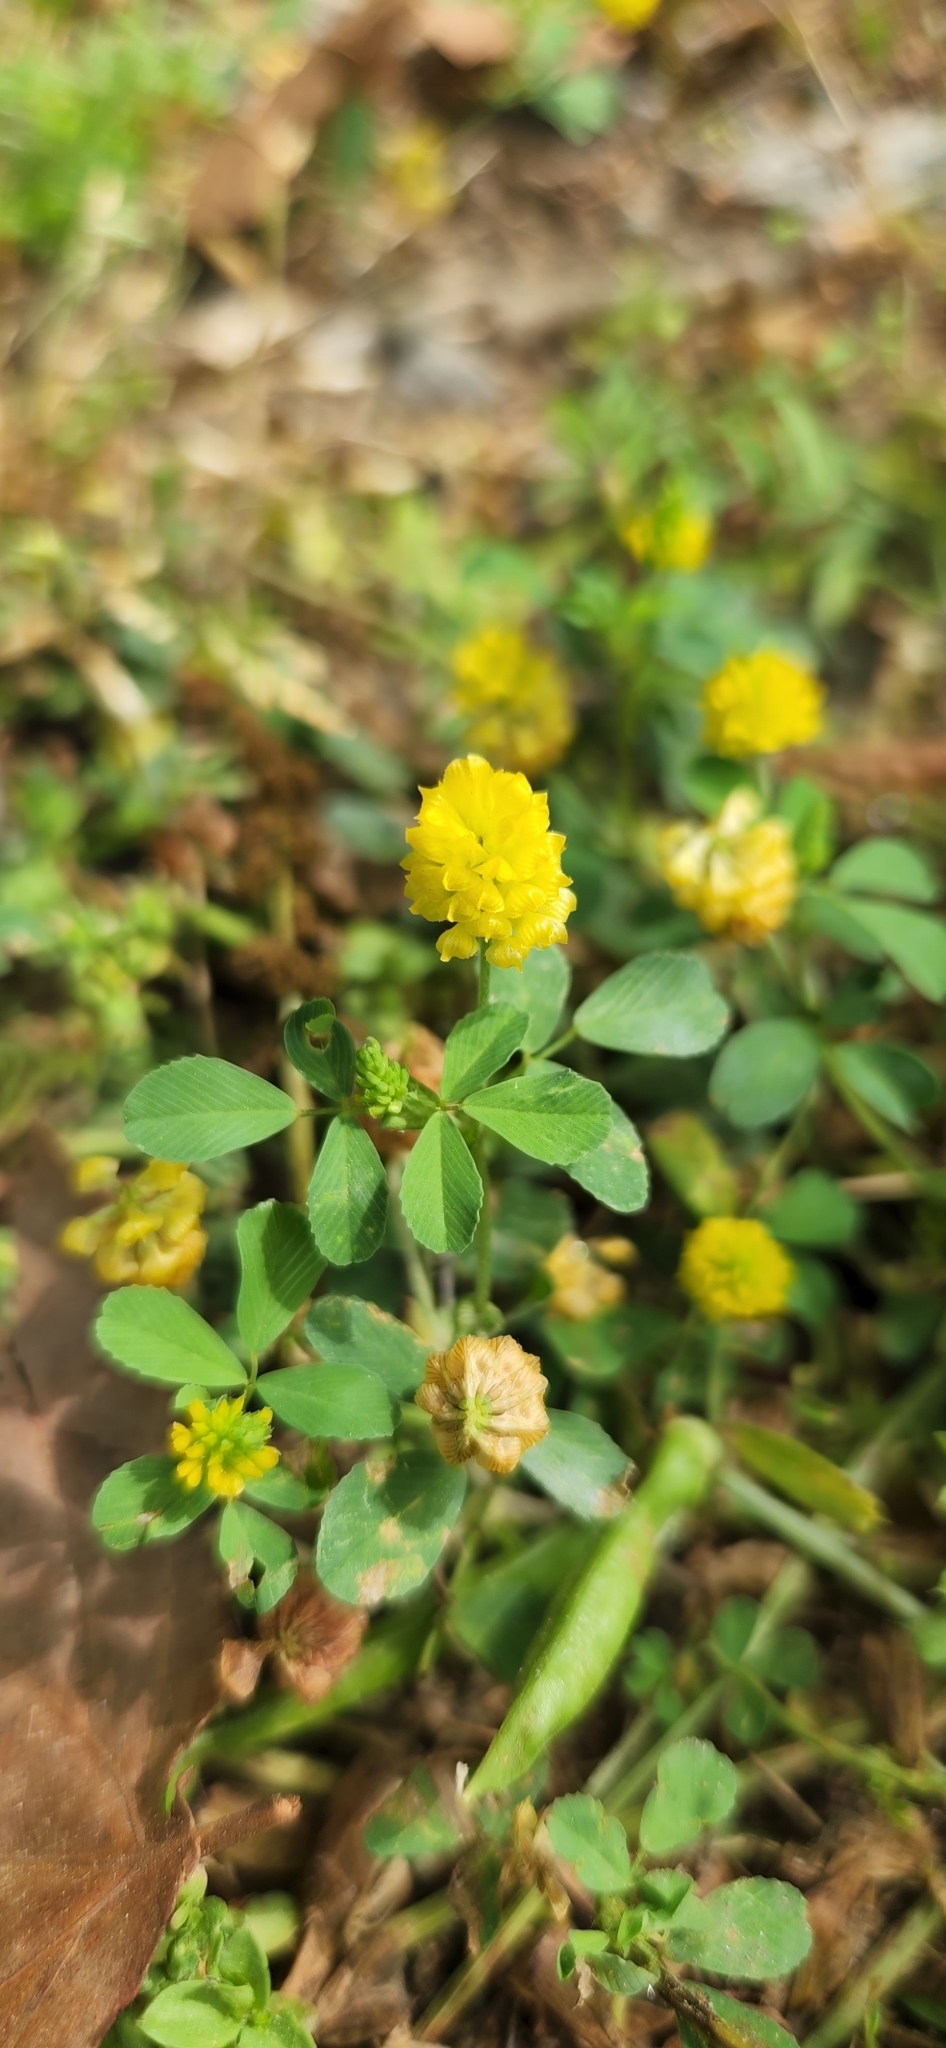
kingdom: Plantae
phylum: Tracheophyta
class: Magnoliopsida
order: Fabales
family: Fabaceae
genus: Trifolium
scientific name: Trifolium campestre
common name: Field clover
